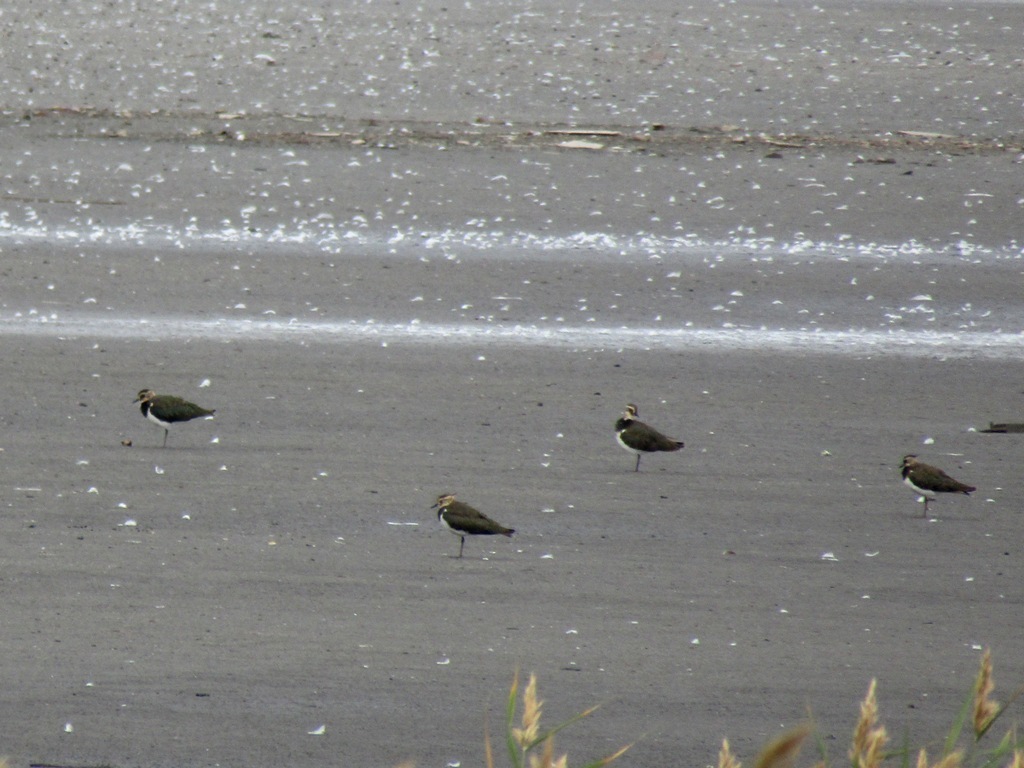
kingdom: Animalia
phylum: Chordata
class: Aves
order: Charadriiformes
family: Charadriidae
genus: Vanellus
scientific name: Vanellus vanellus
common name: Northern lapwing
